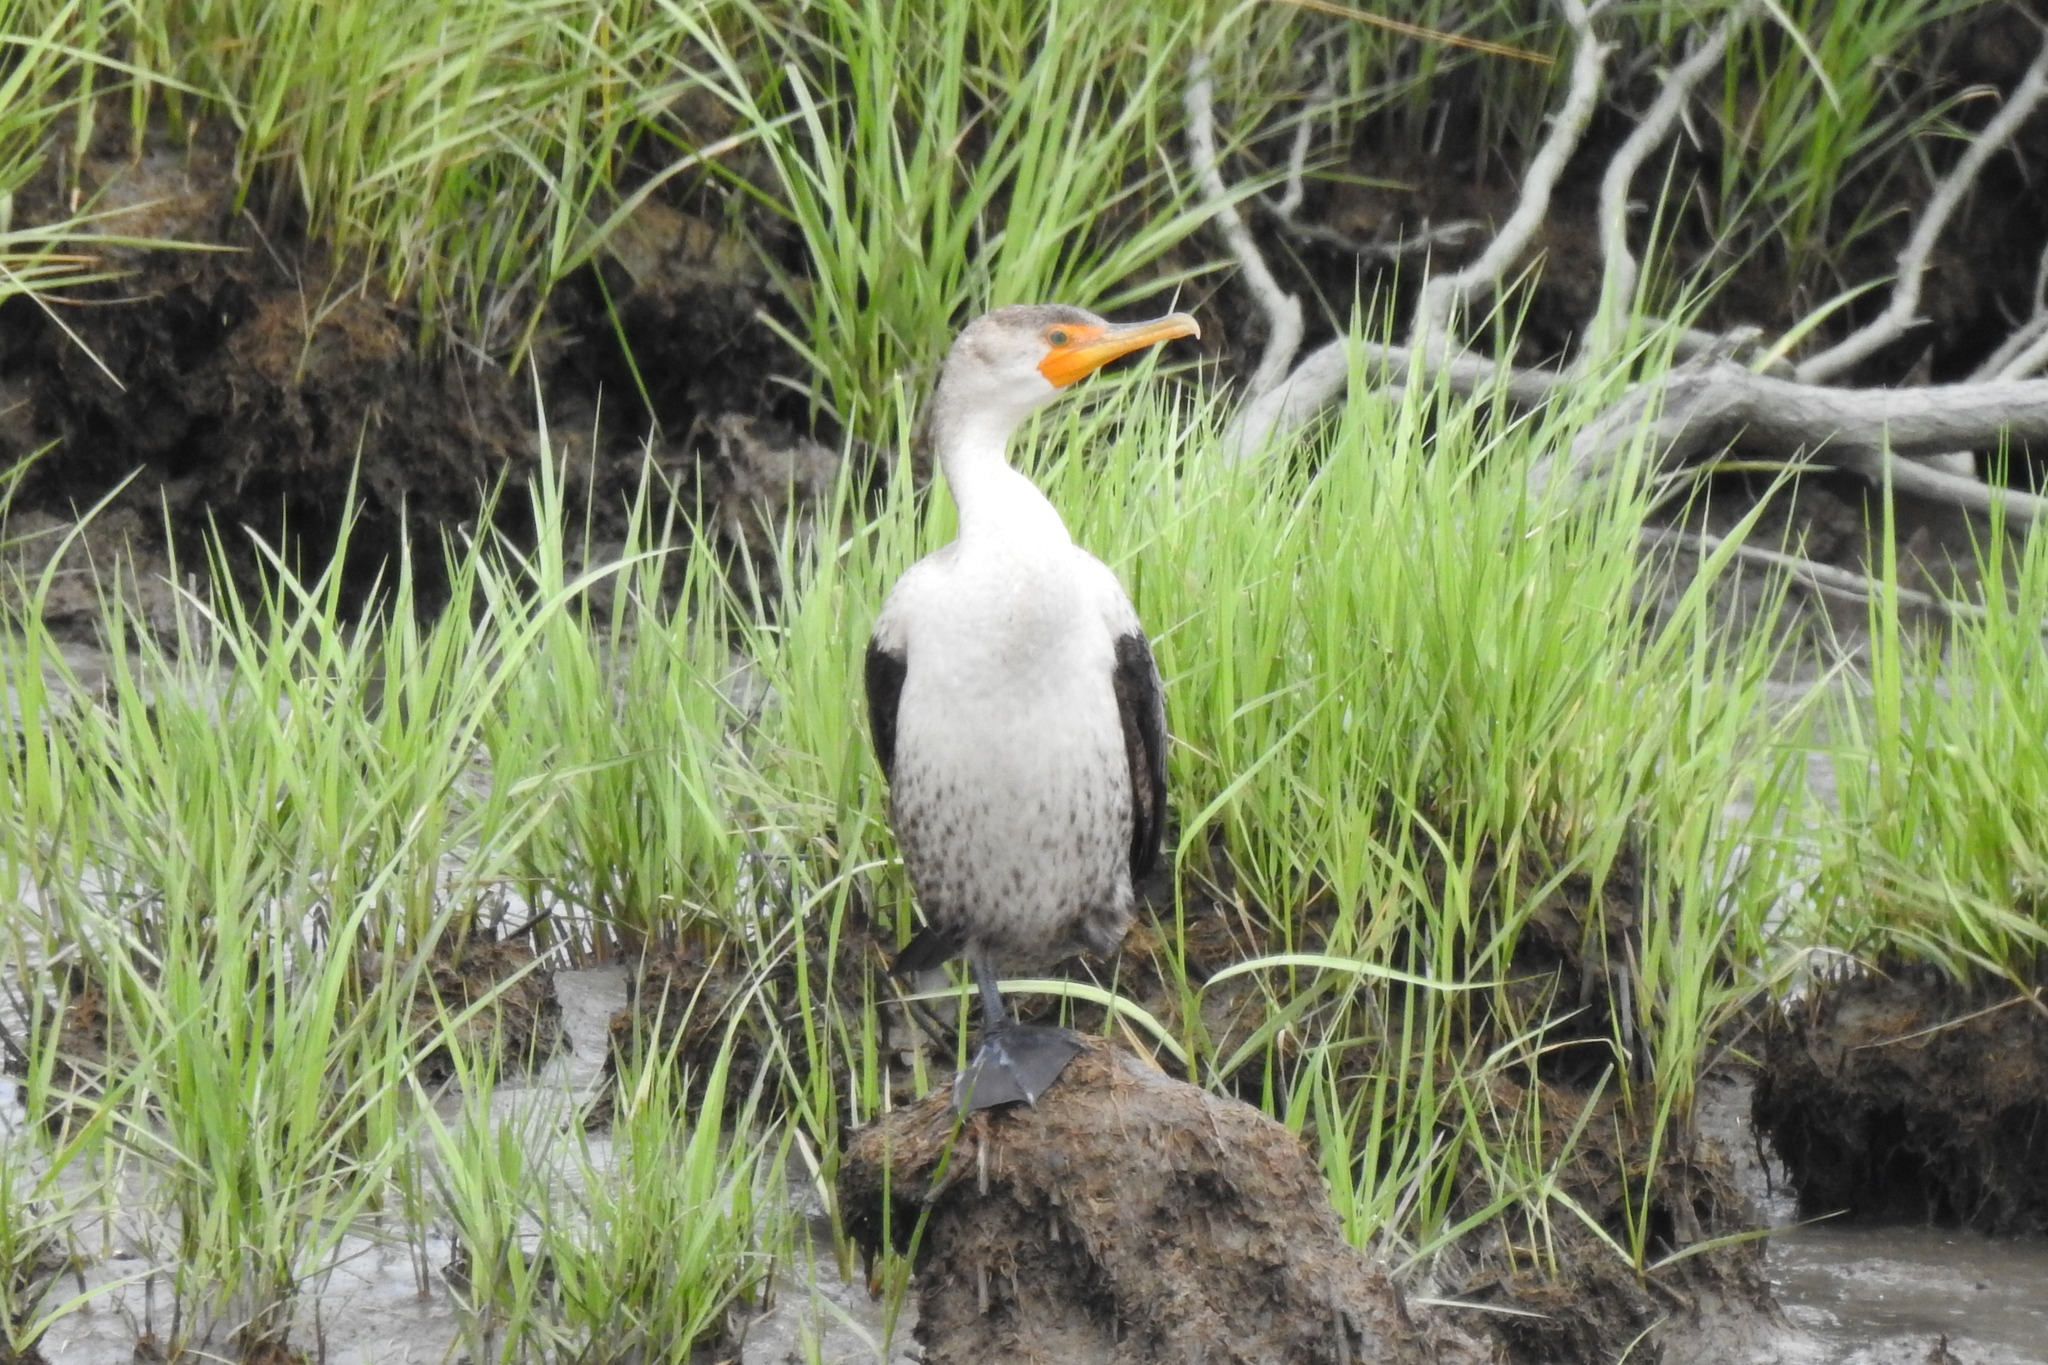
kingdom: Animalia
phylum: Chordata
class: Aves
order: Suliformes
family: Phalacrocoracidae
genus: Phalacrocorax
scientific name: Phalacrocorax auritus
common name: Double-crested cormorant
